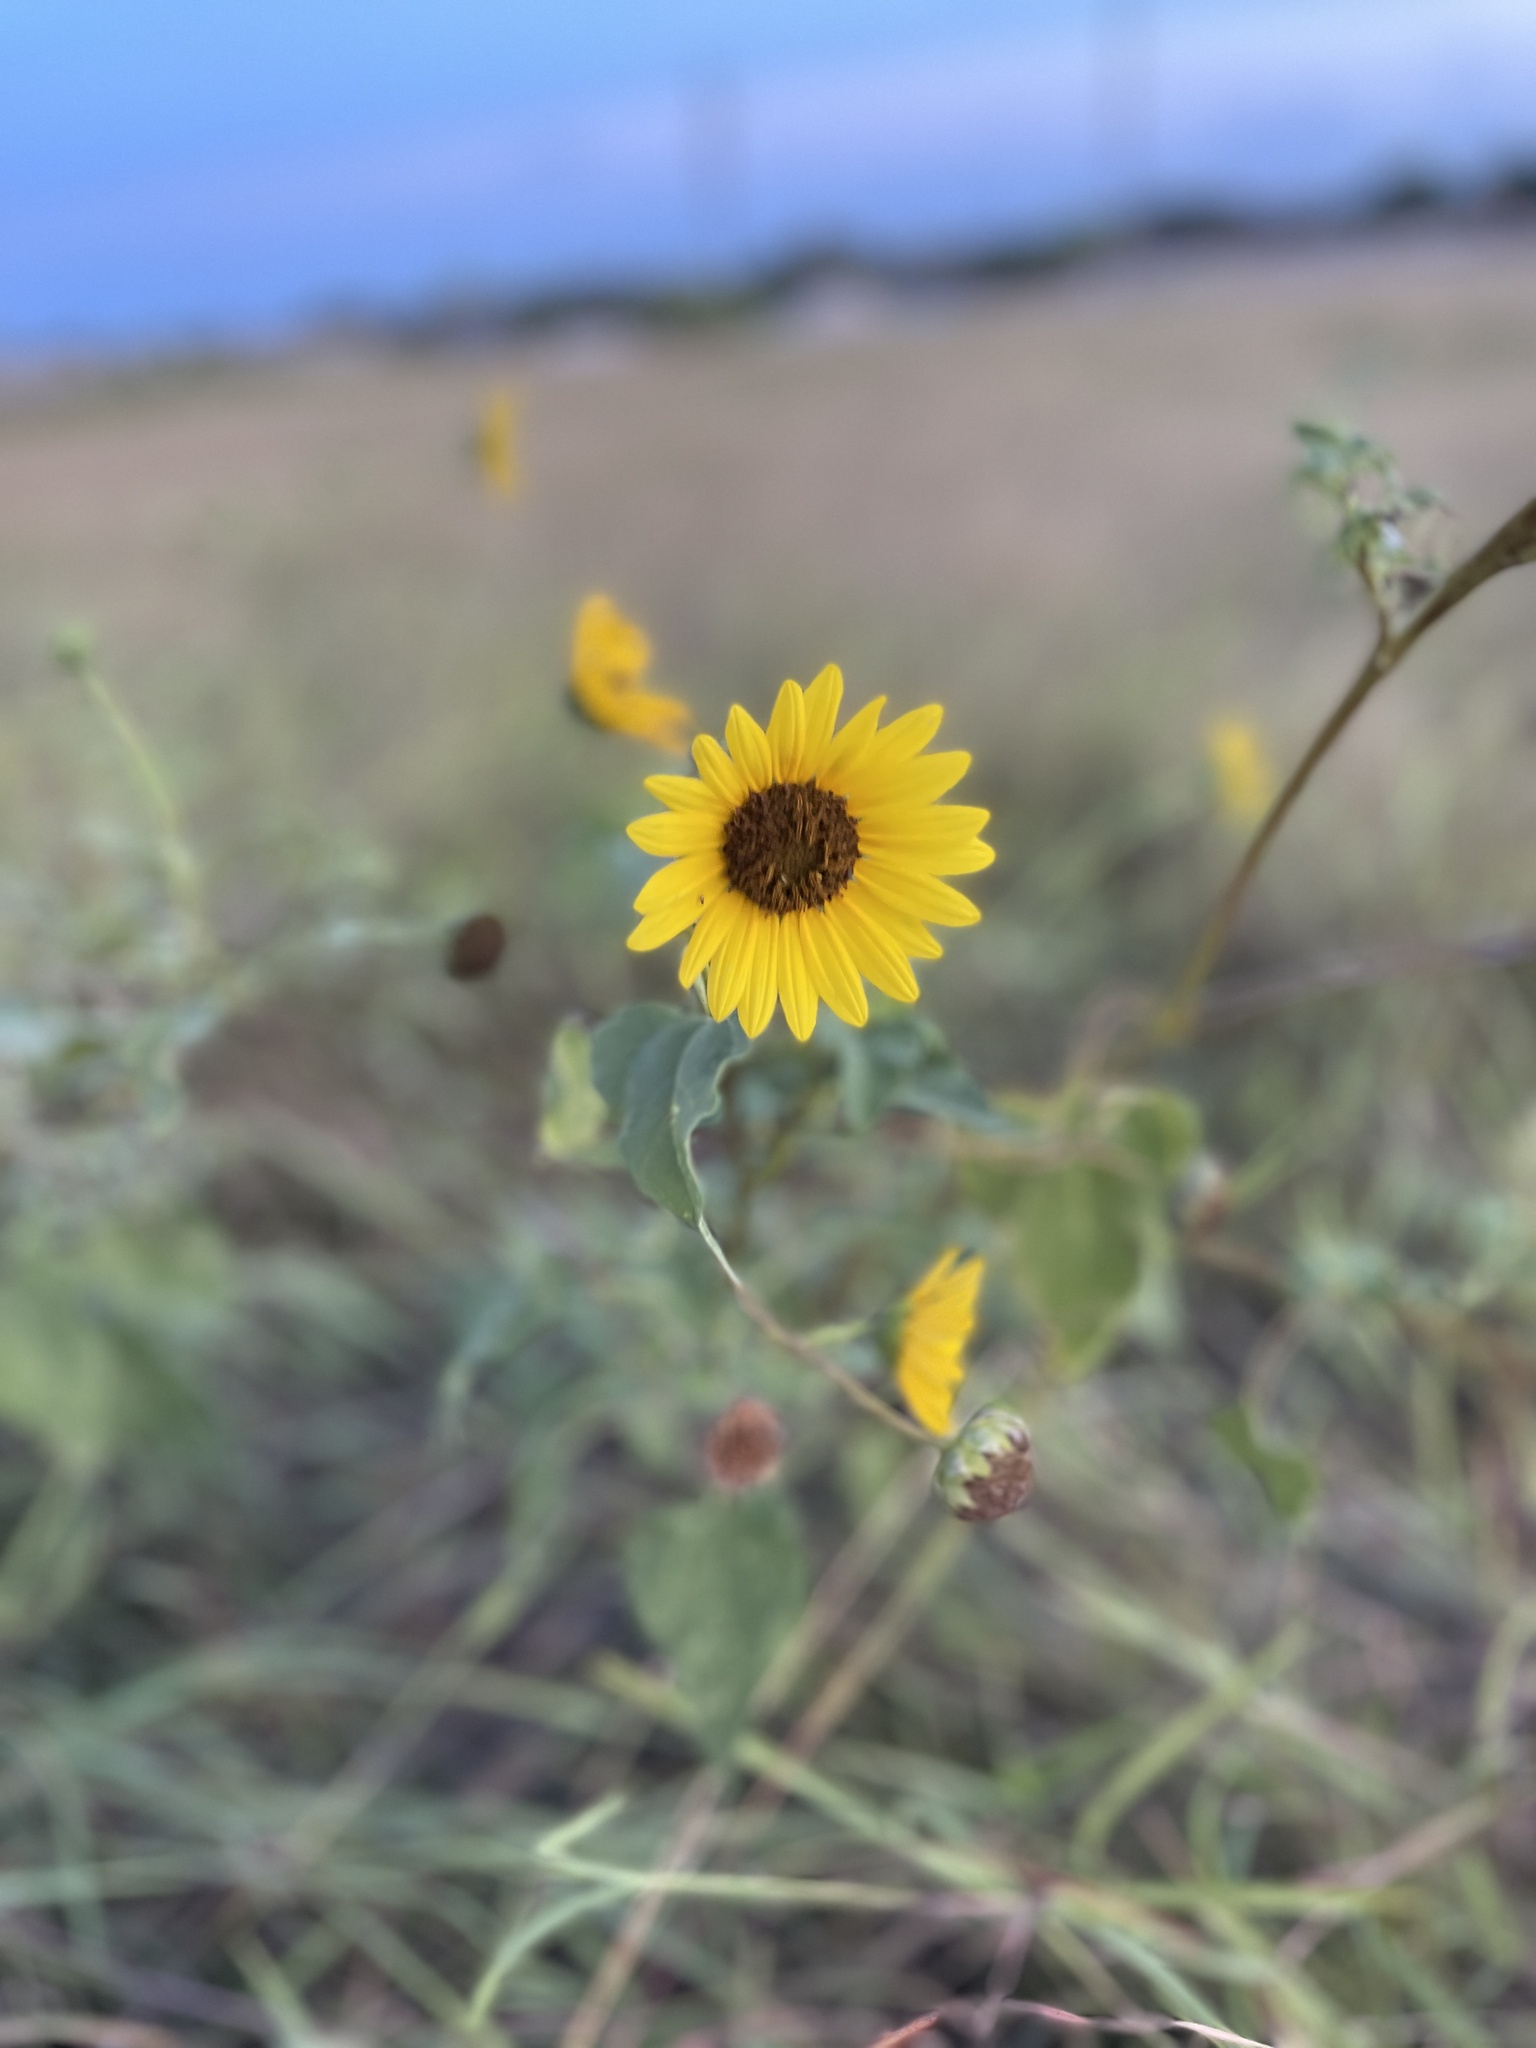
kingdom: Plantae
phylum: Tracheophyta
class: Magnoliopsida
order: Asterales
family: Asteraceae
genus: Helianthus
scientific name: Helianthus annuus
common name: Sunflower
